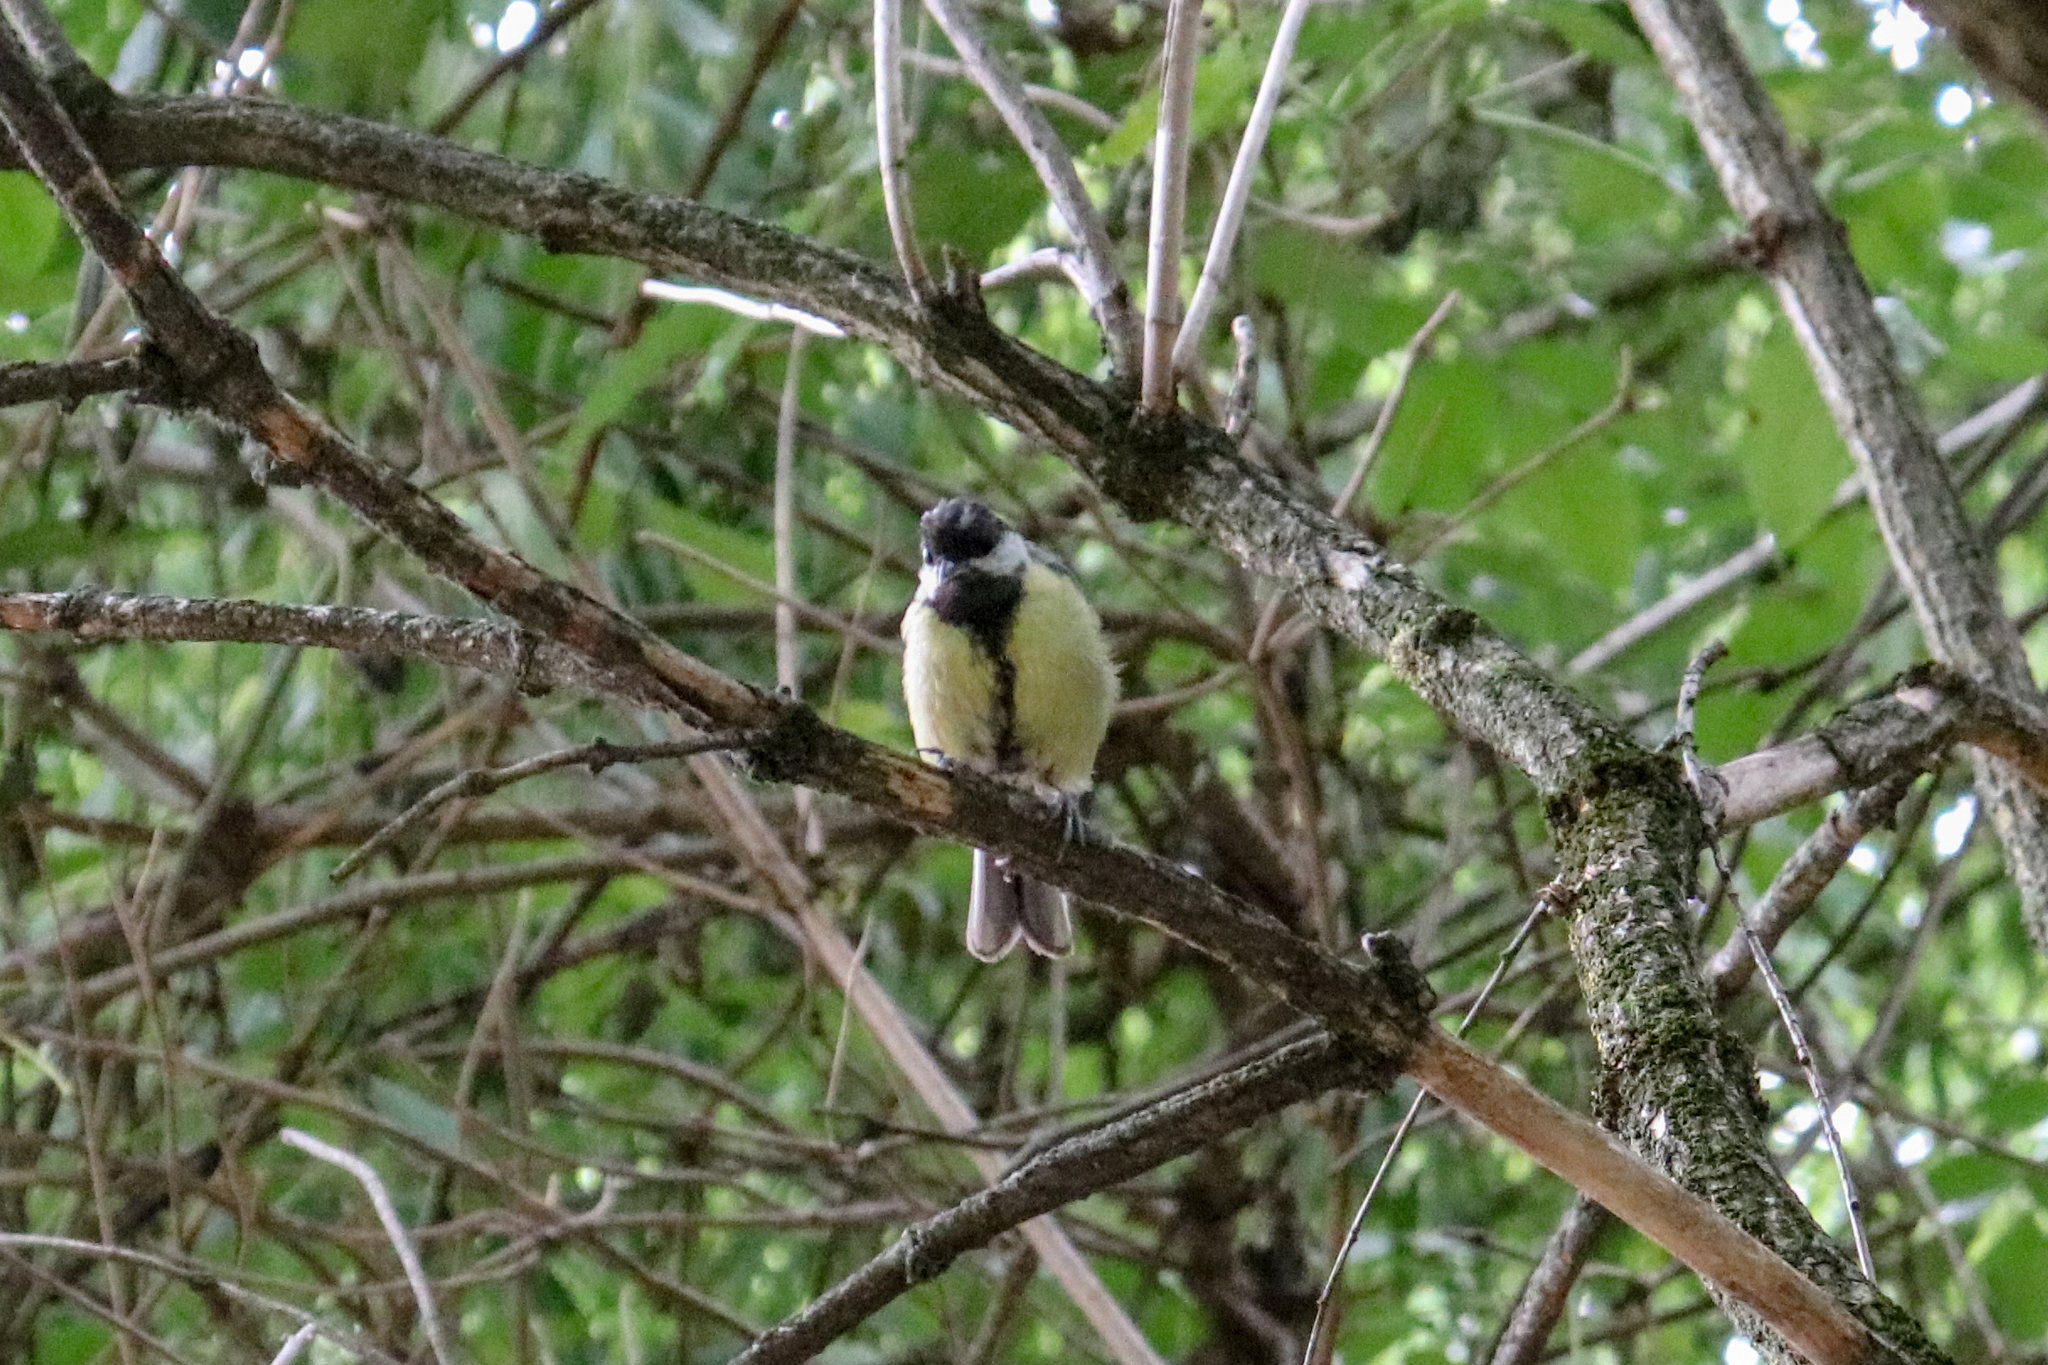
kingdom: Animalia
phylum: Chordata
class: Aves
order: Passeriformes
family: Paridae
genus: Parus
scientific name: Parus major
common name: Great tit
